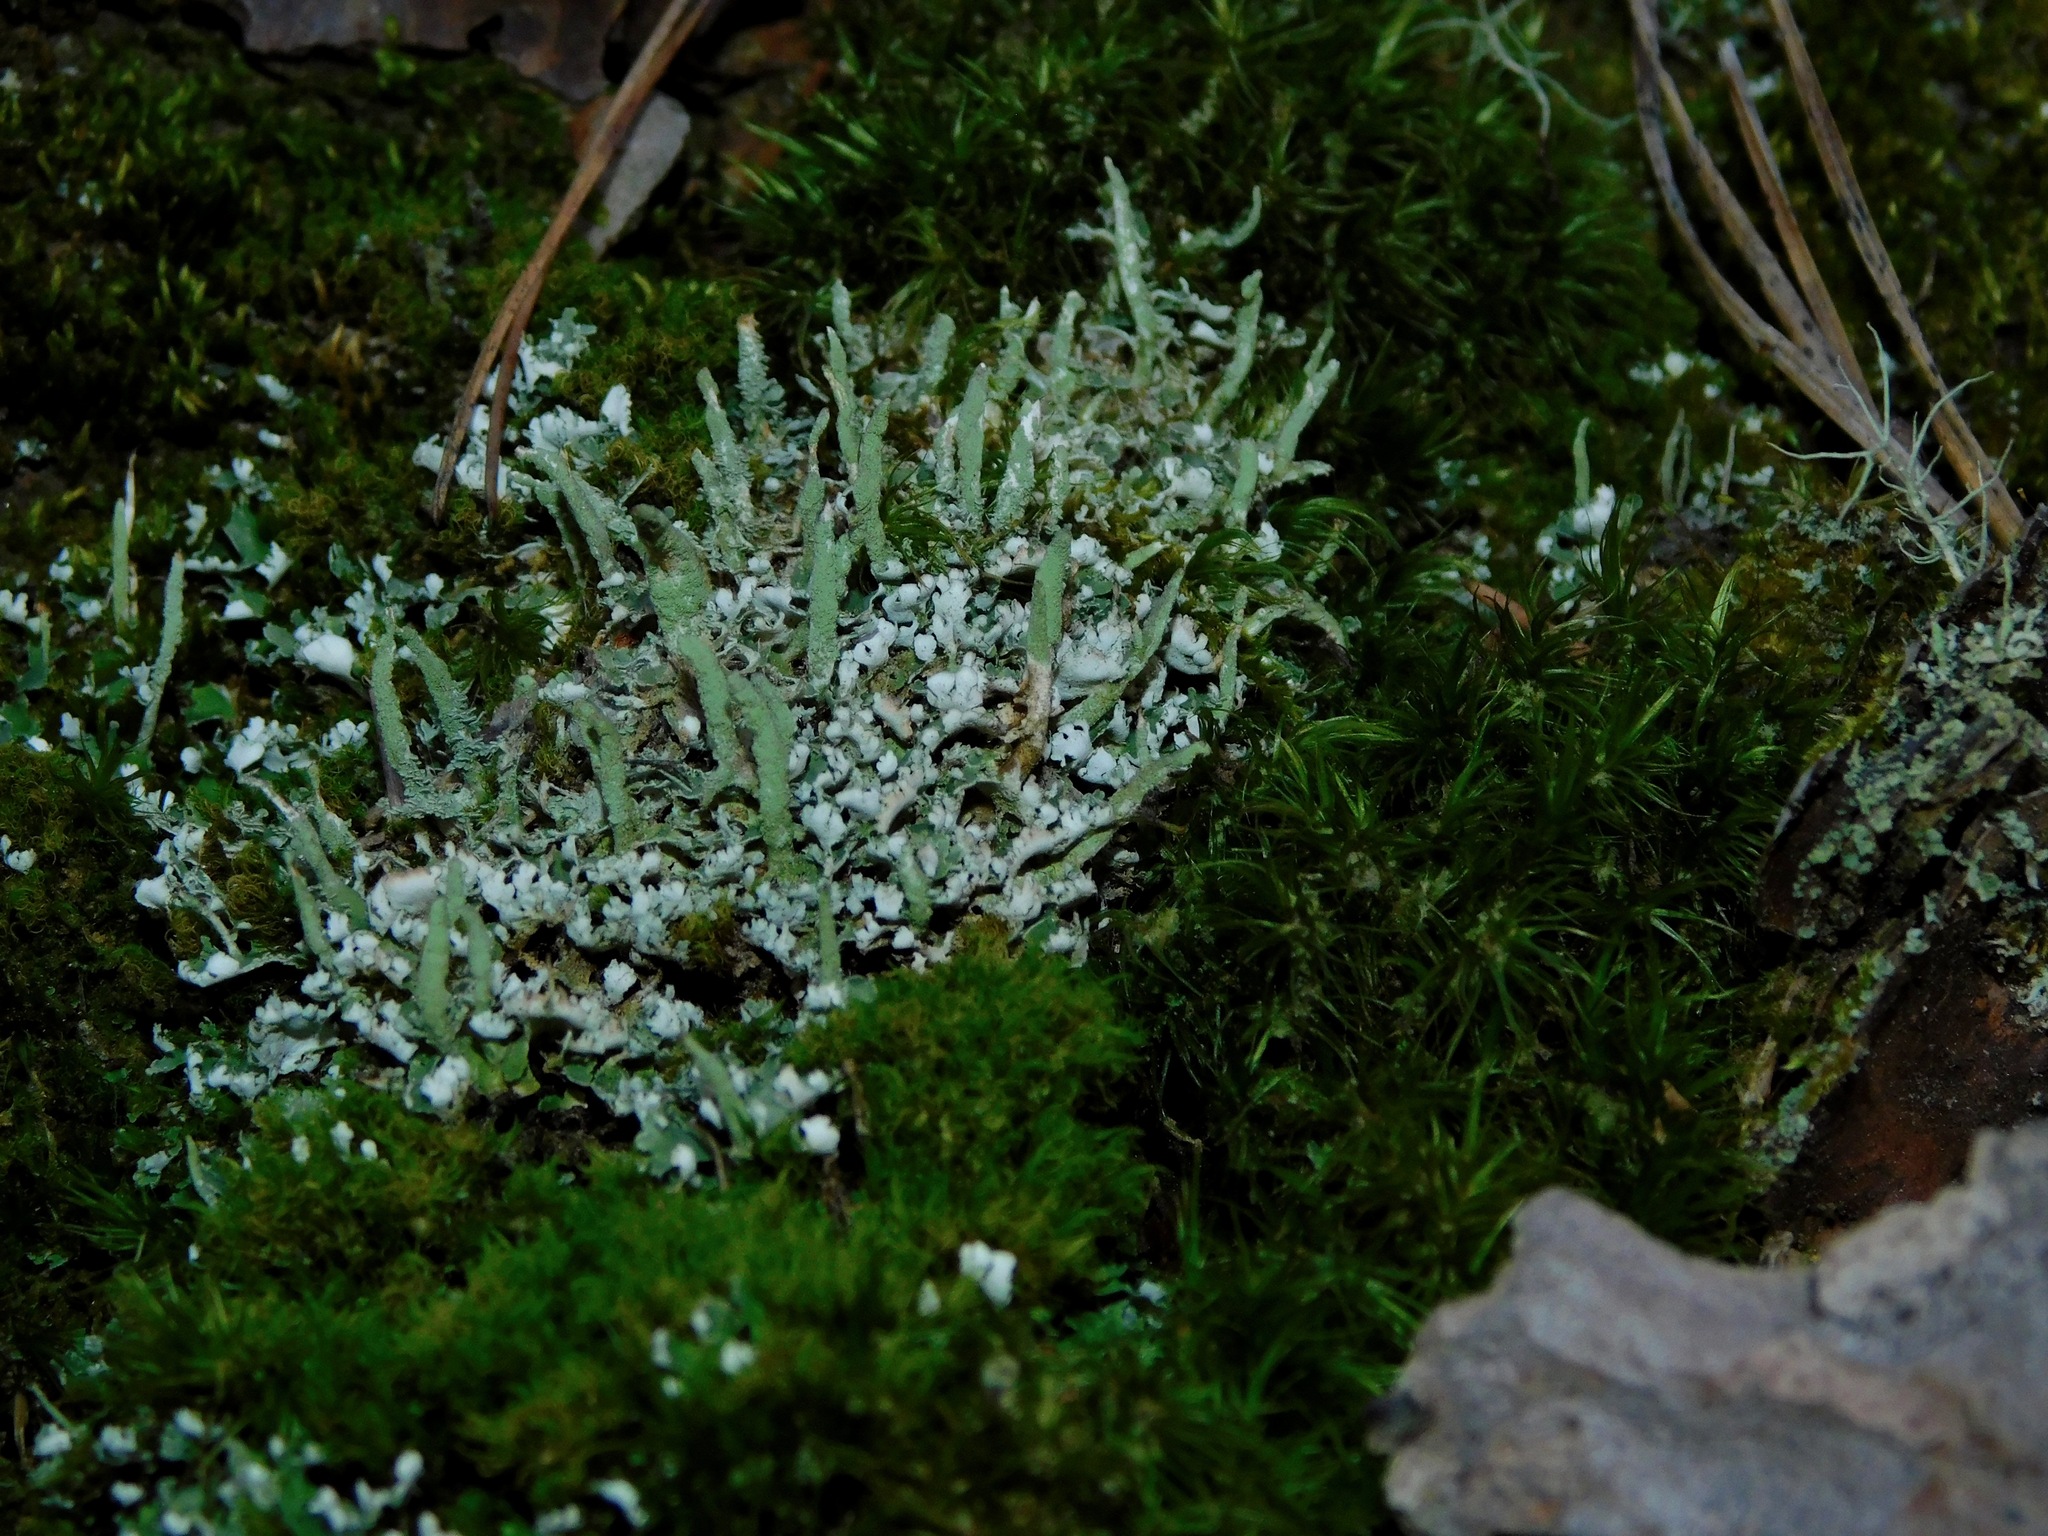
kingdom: Fungi
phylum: Ascomycota
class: Lecanoromycetes
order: Lecanorales
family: Cladoniaceae
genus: Cladonia
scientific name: Cladonia ochrochlora
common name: Smooth-footed powderhorn
